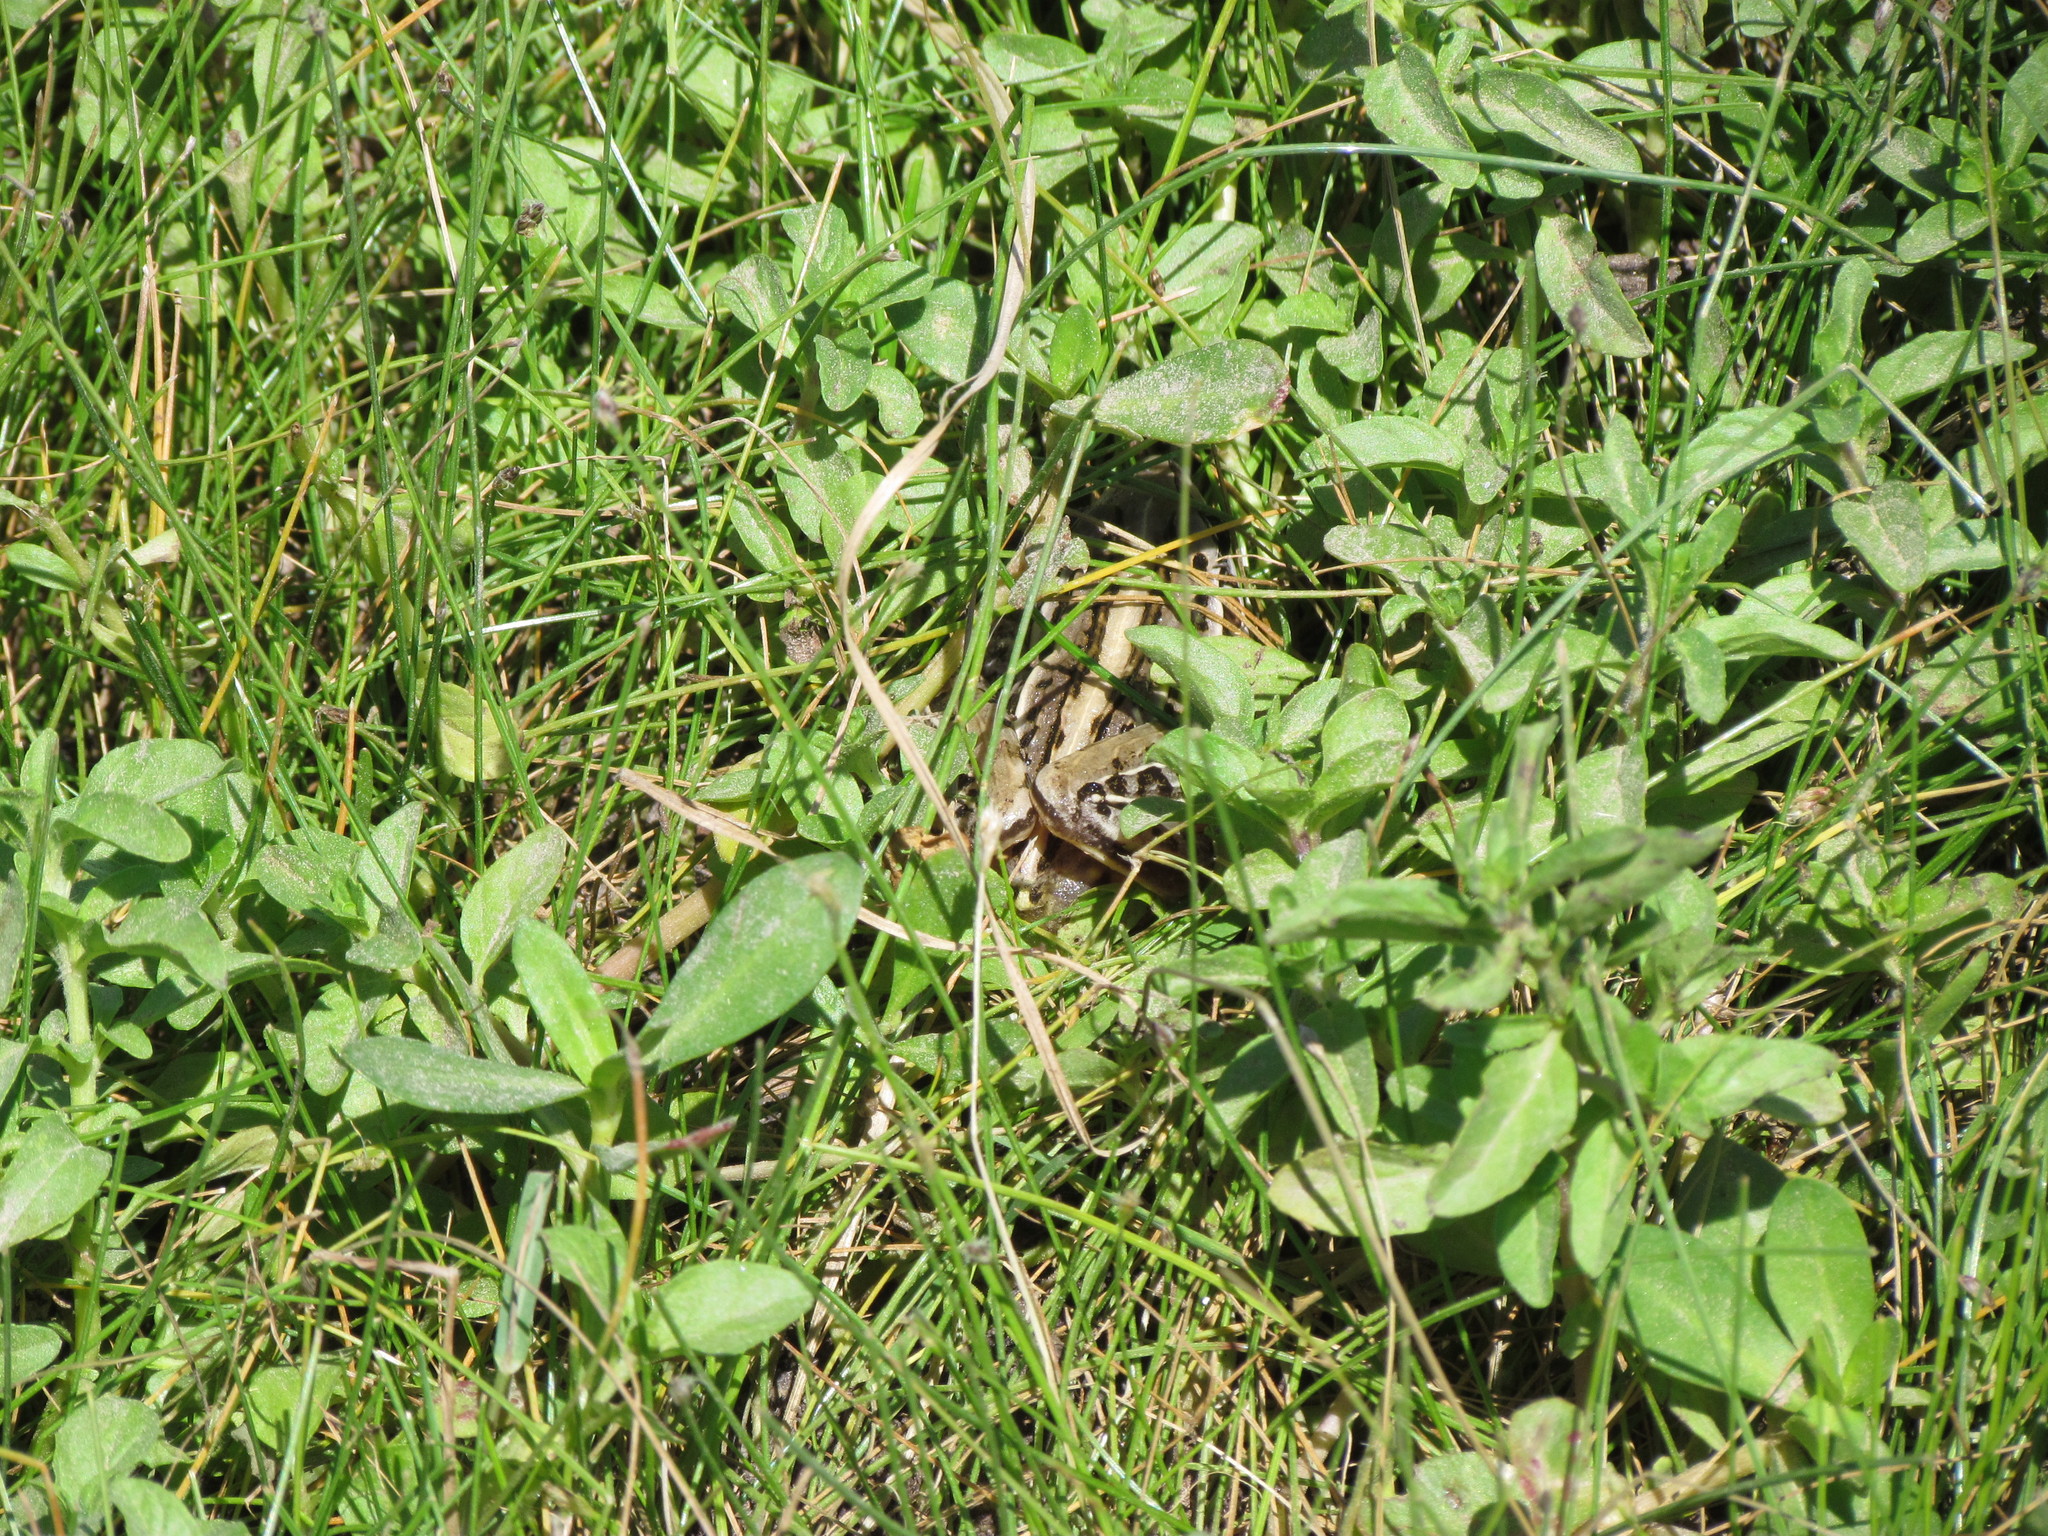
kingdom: Animalia
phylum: Chordata
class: Amphibia
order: Anura
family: Leptodactylidae
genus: Leptodactylus
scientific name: Leptodactylus gracilis
